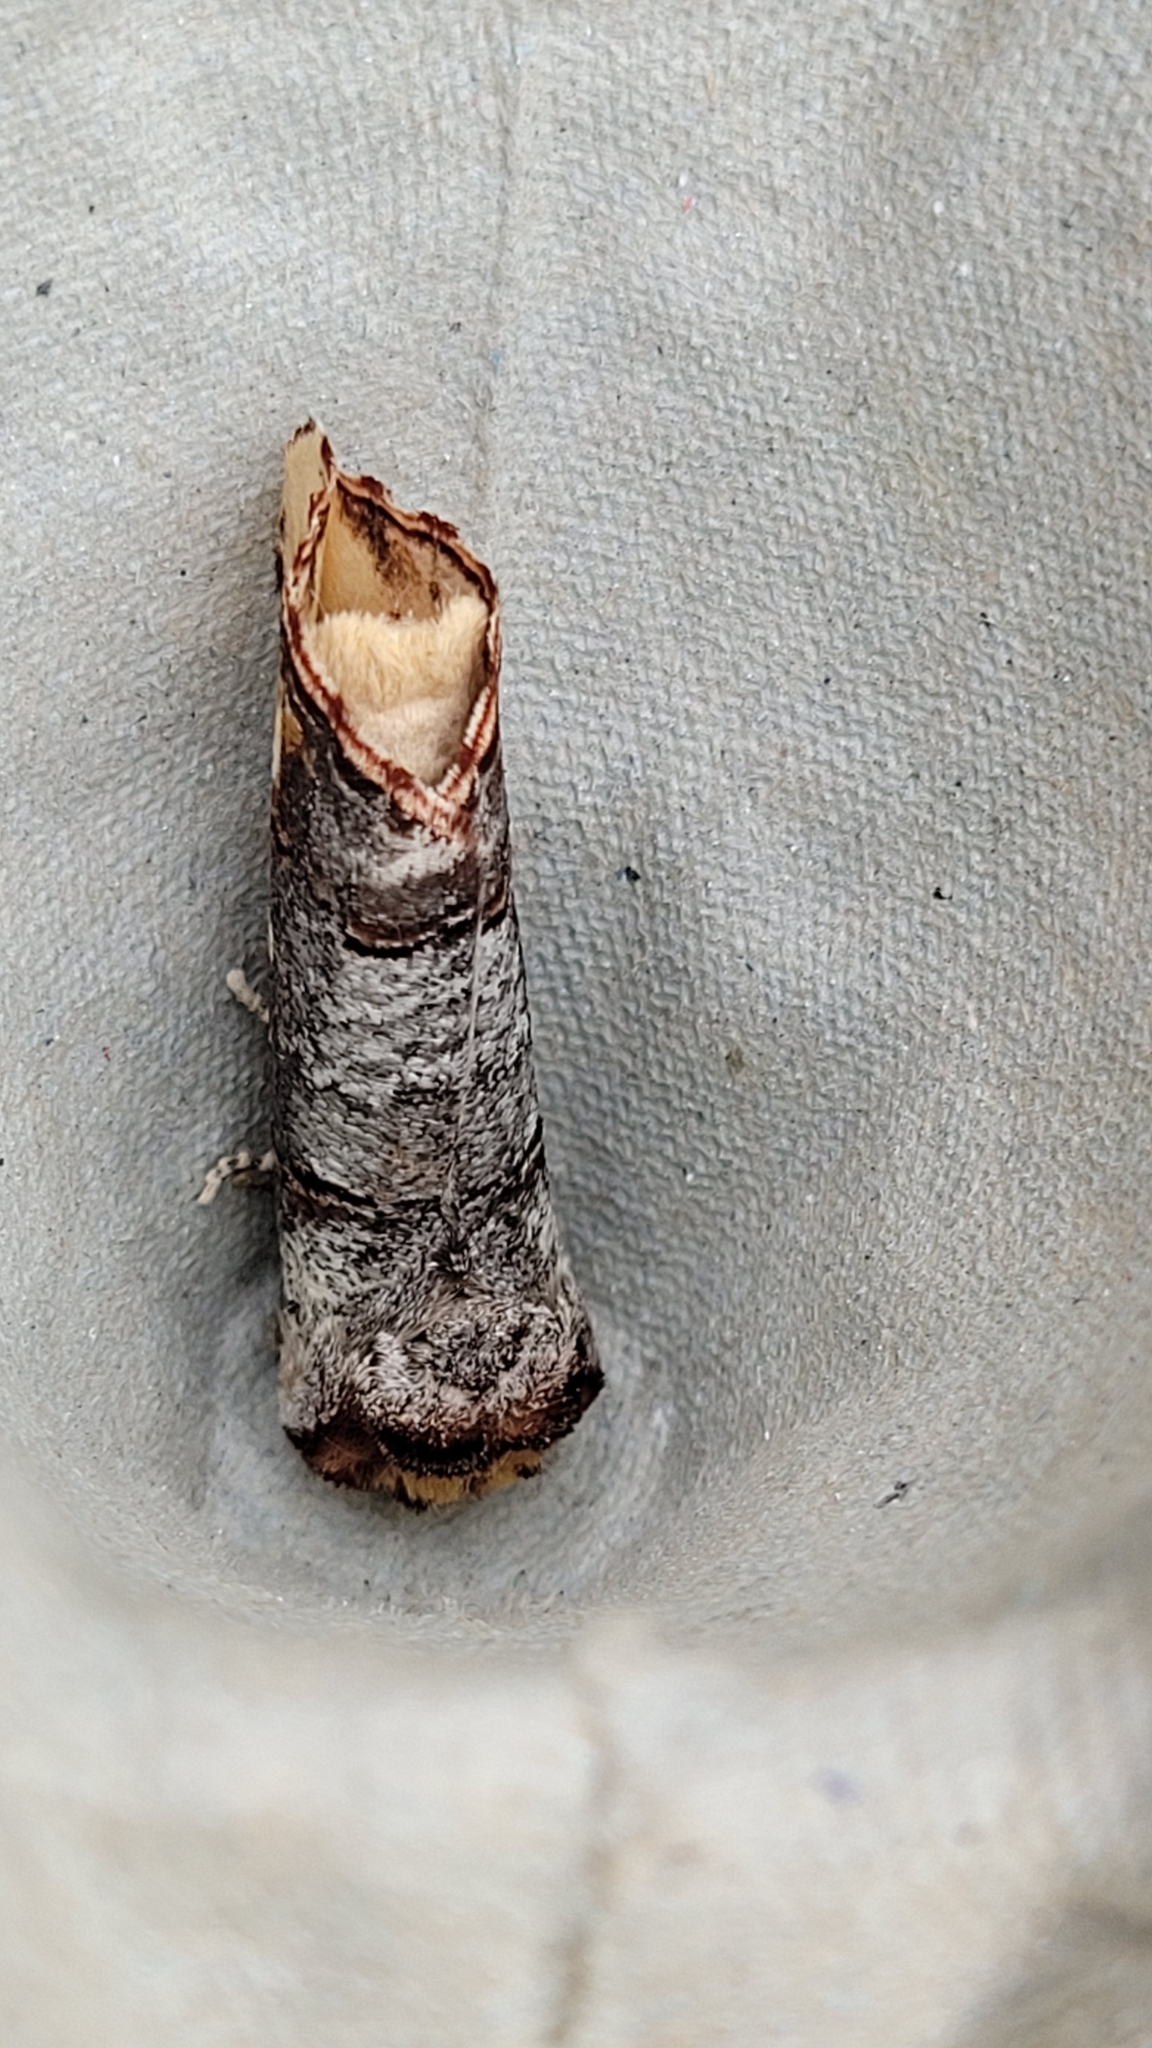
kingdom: Animalia
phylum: Arthropoda
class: Insecta
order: Lepidoptera
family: Notodontidae
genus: Phalera
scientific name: Phalera bucephala
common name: Buff-tip
